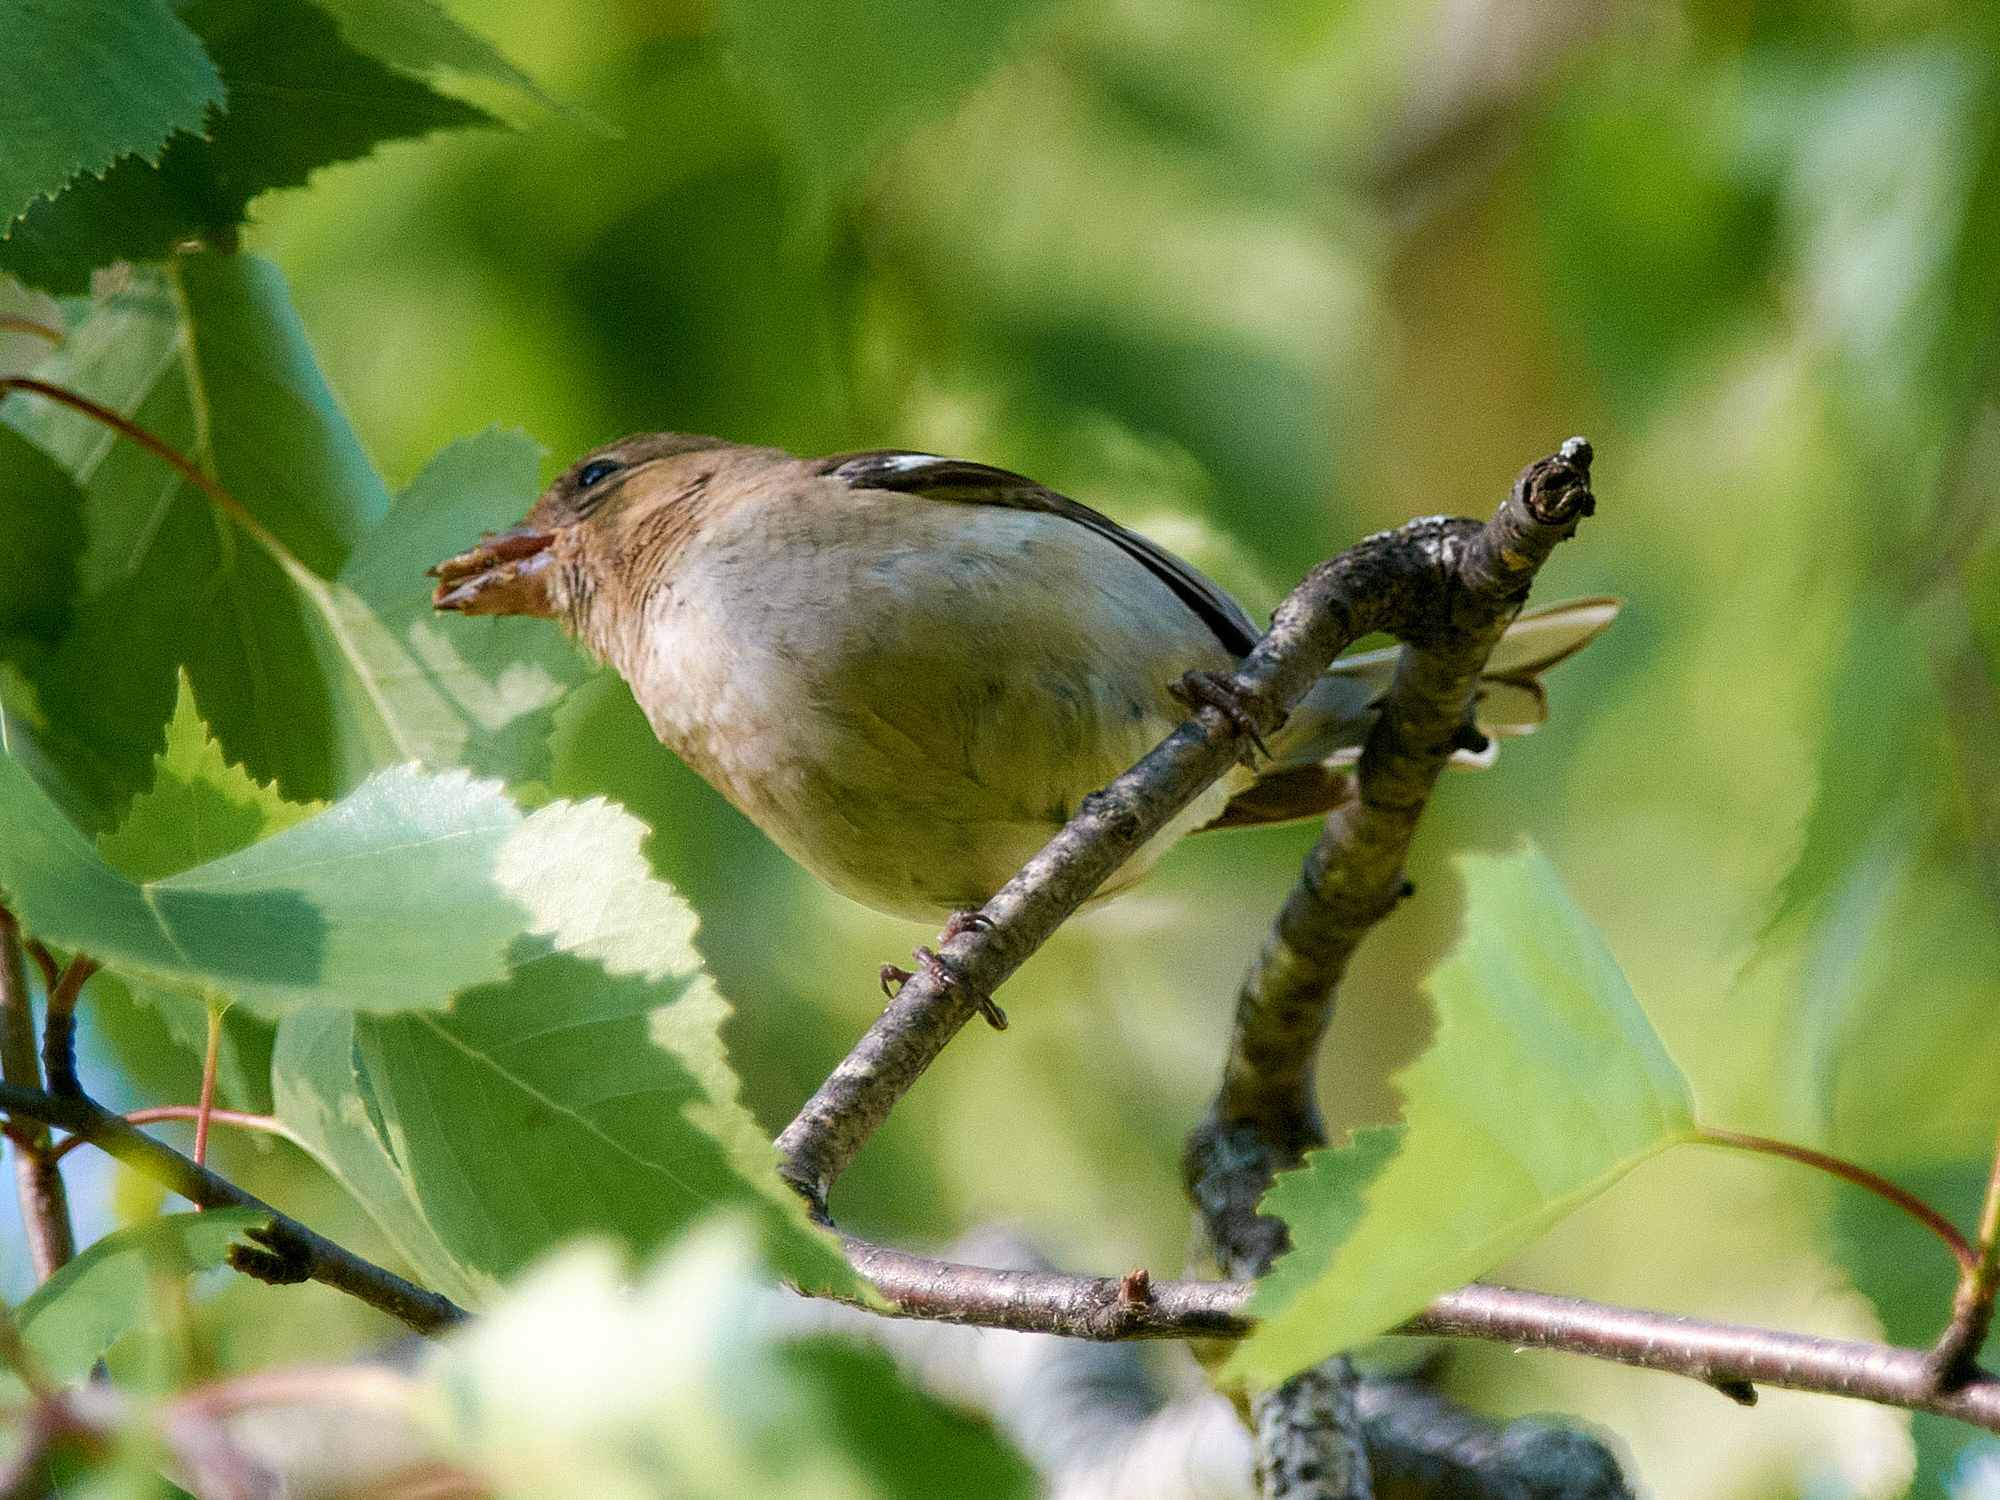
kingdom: Animalia
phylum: Chordata
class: Aves
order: Passeriformes
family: Fringillidae
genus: Fringilla
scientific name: Fringilla coelebs
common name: Common chaffinch
